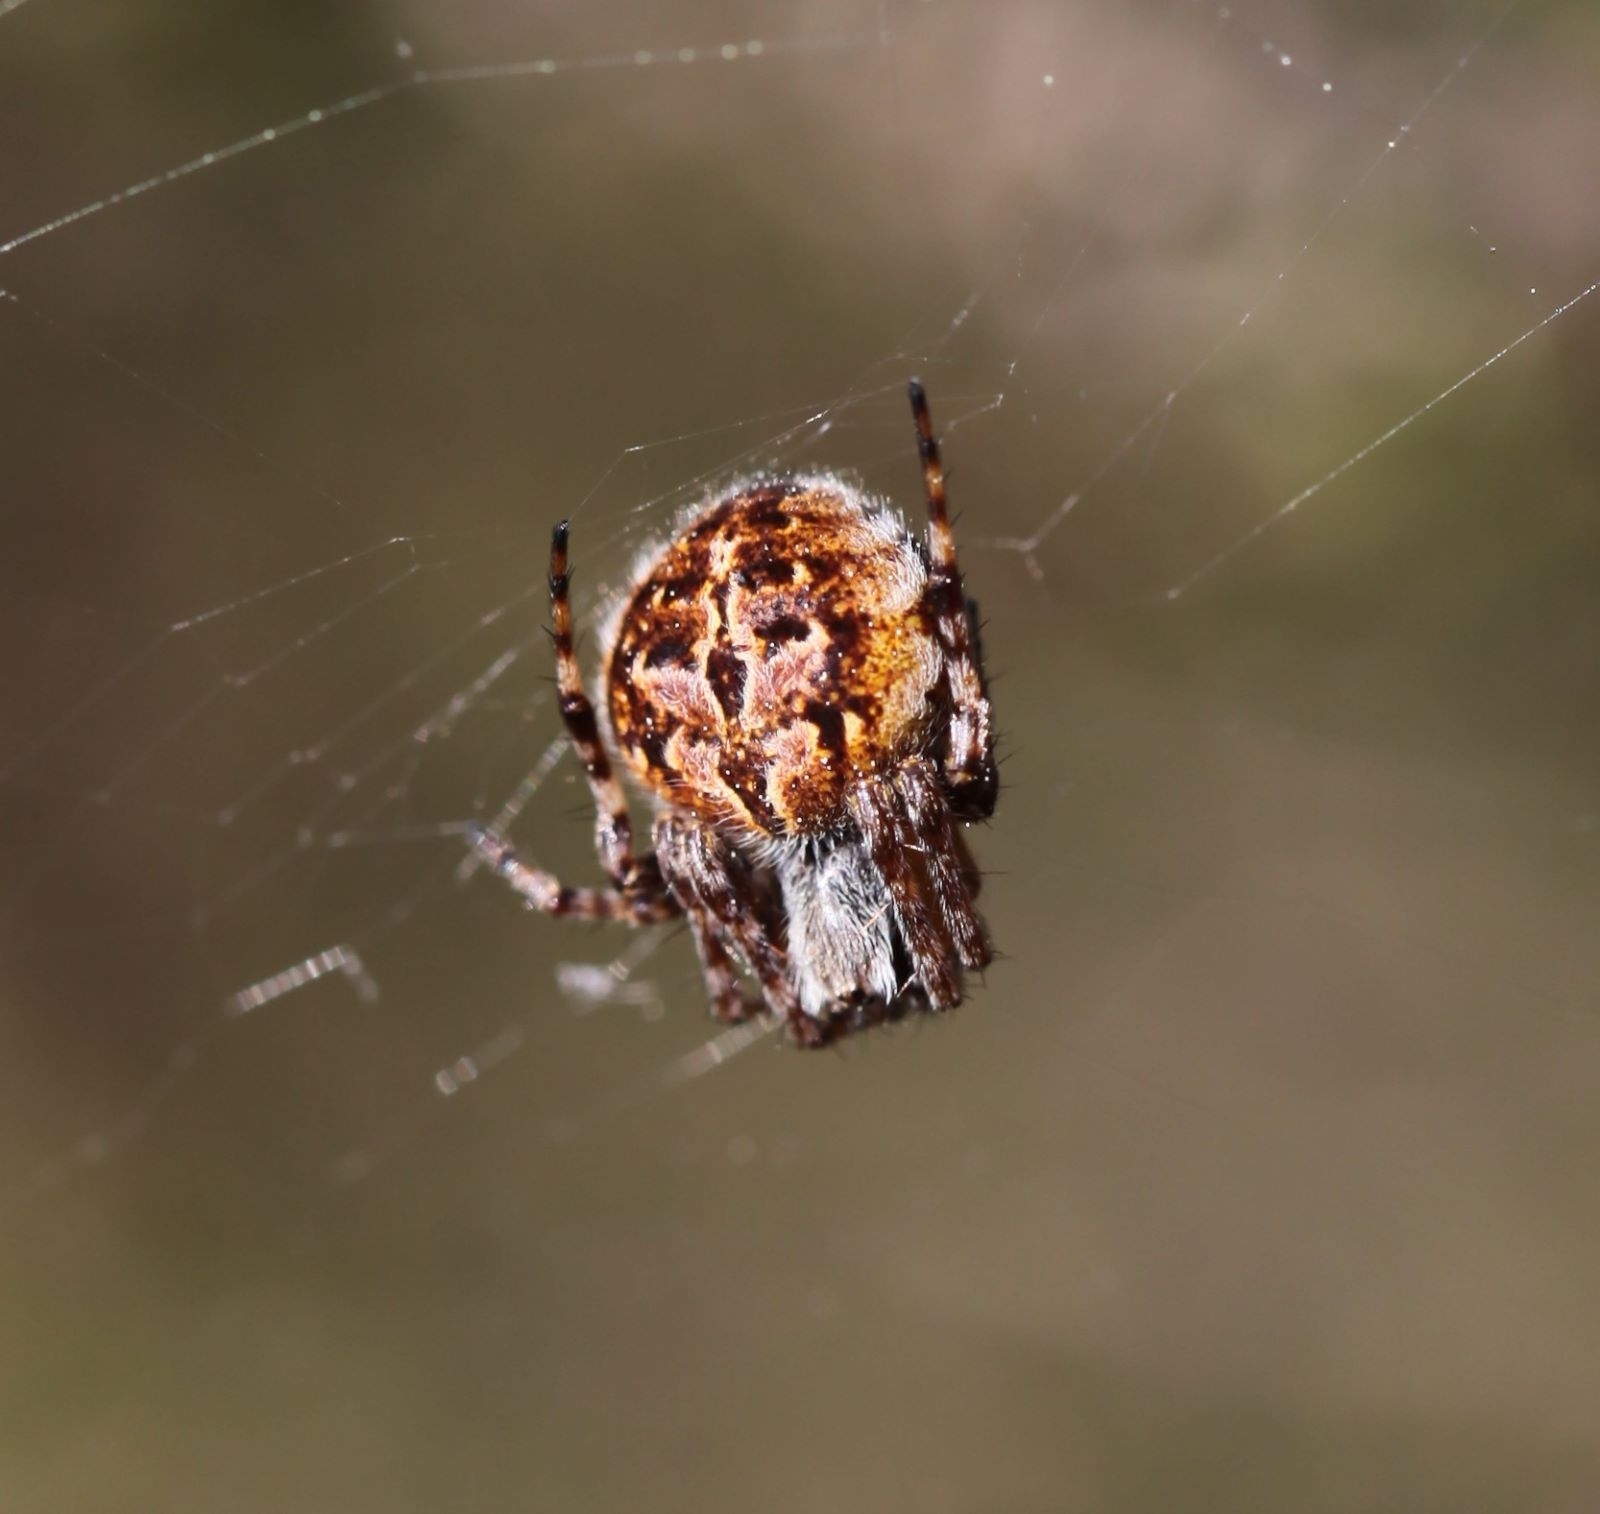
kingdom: Animalia
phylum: Arthropoda
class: Arachnida
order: Araneae
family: Araneidae
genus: Agalenatea
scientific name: Agalenatea redii
